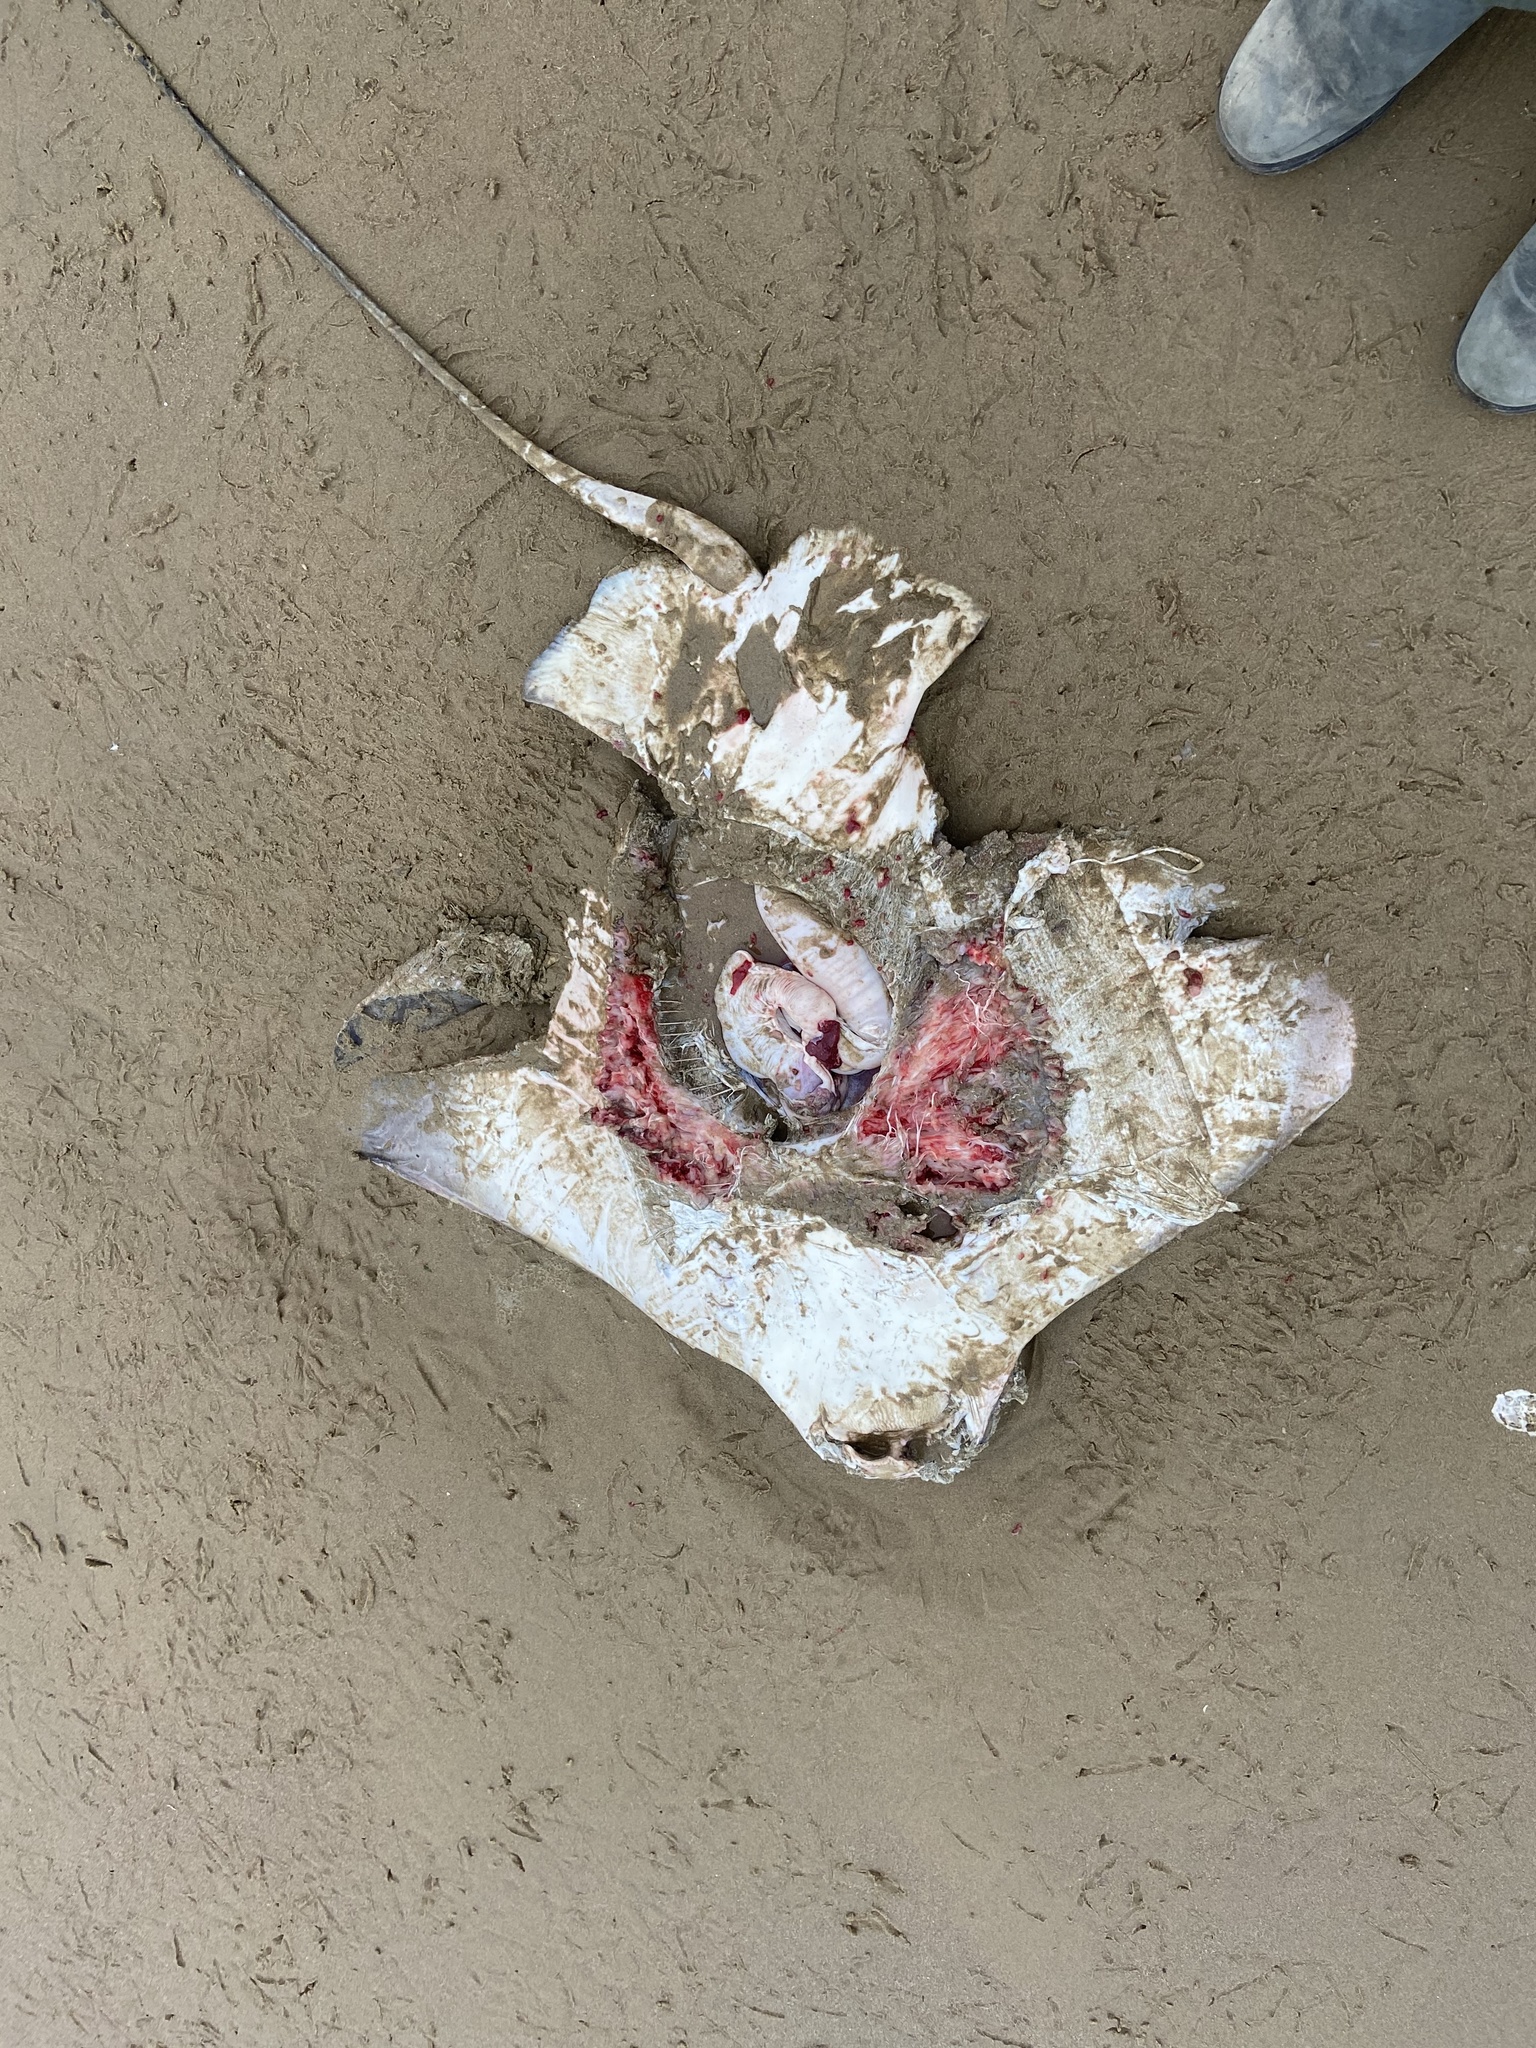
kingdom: Animalia
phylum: Chordata
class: Elasmobranchii
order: Myliobatiformes
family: Myliobatidae
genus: Myliobatis
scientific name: Myliobatis californica
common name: Bat ray
